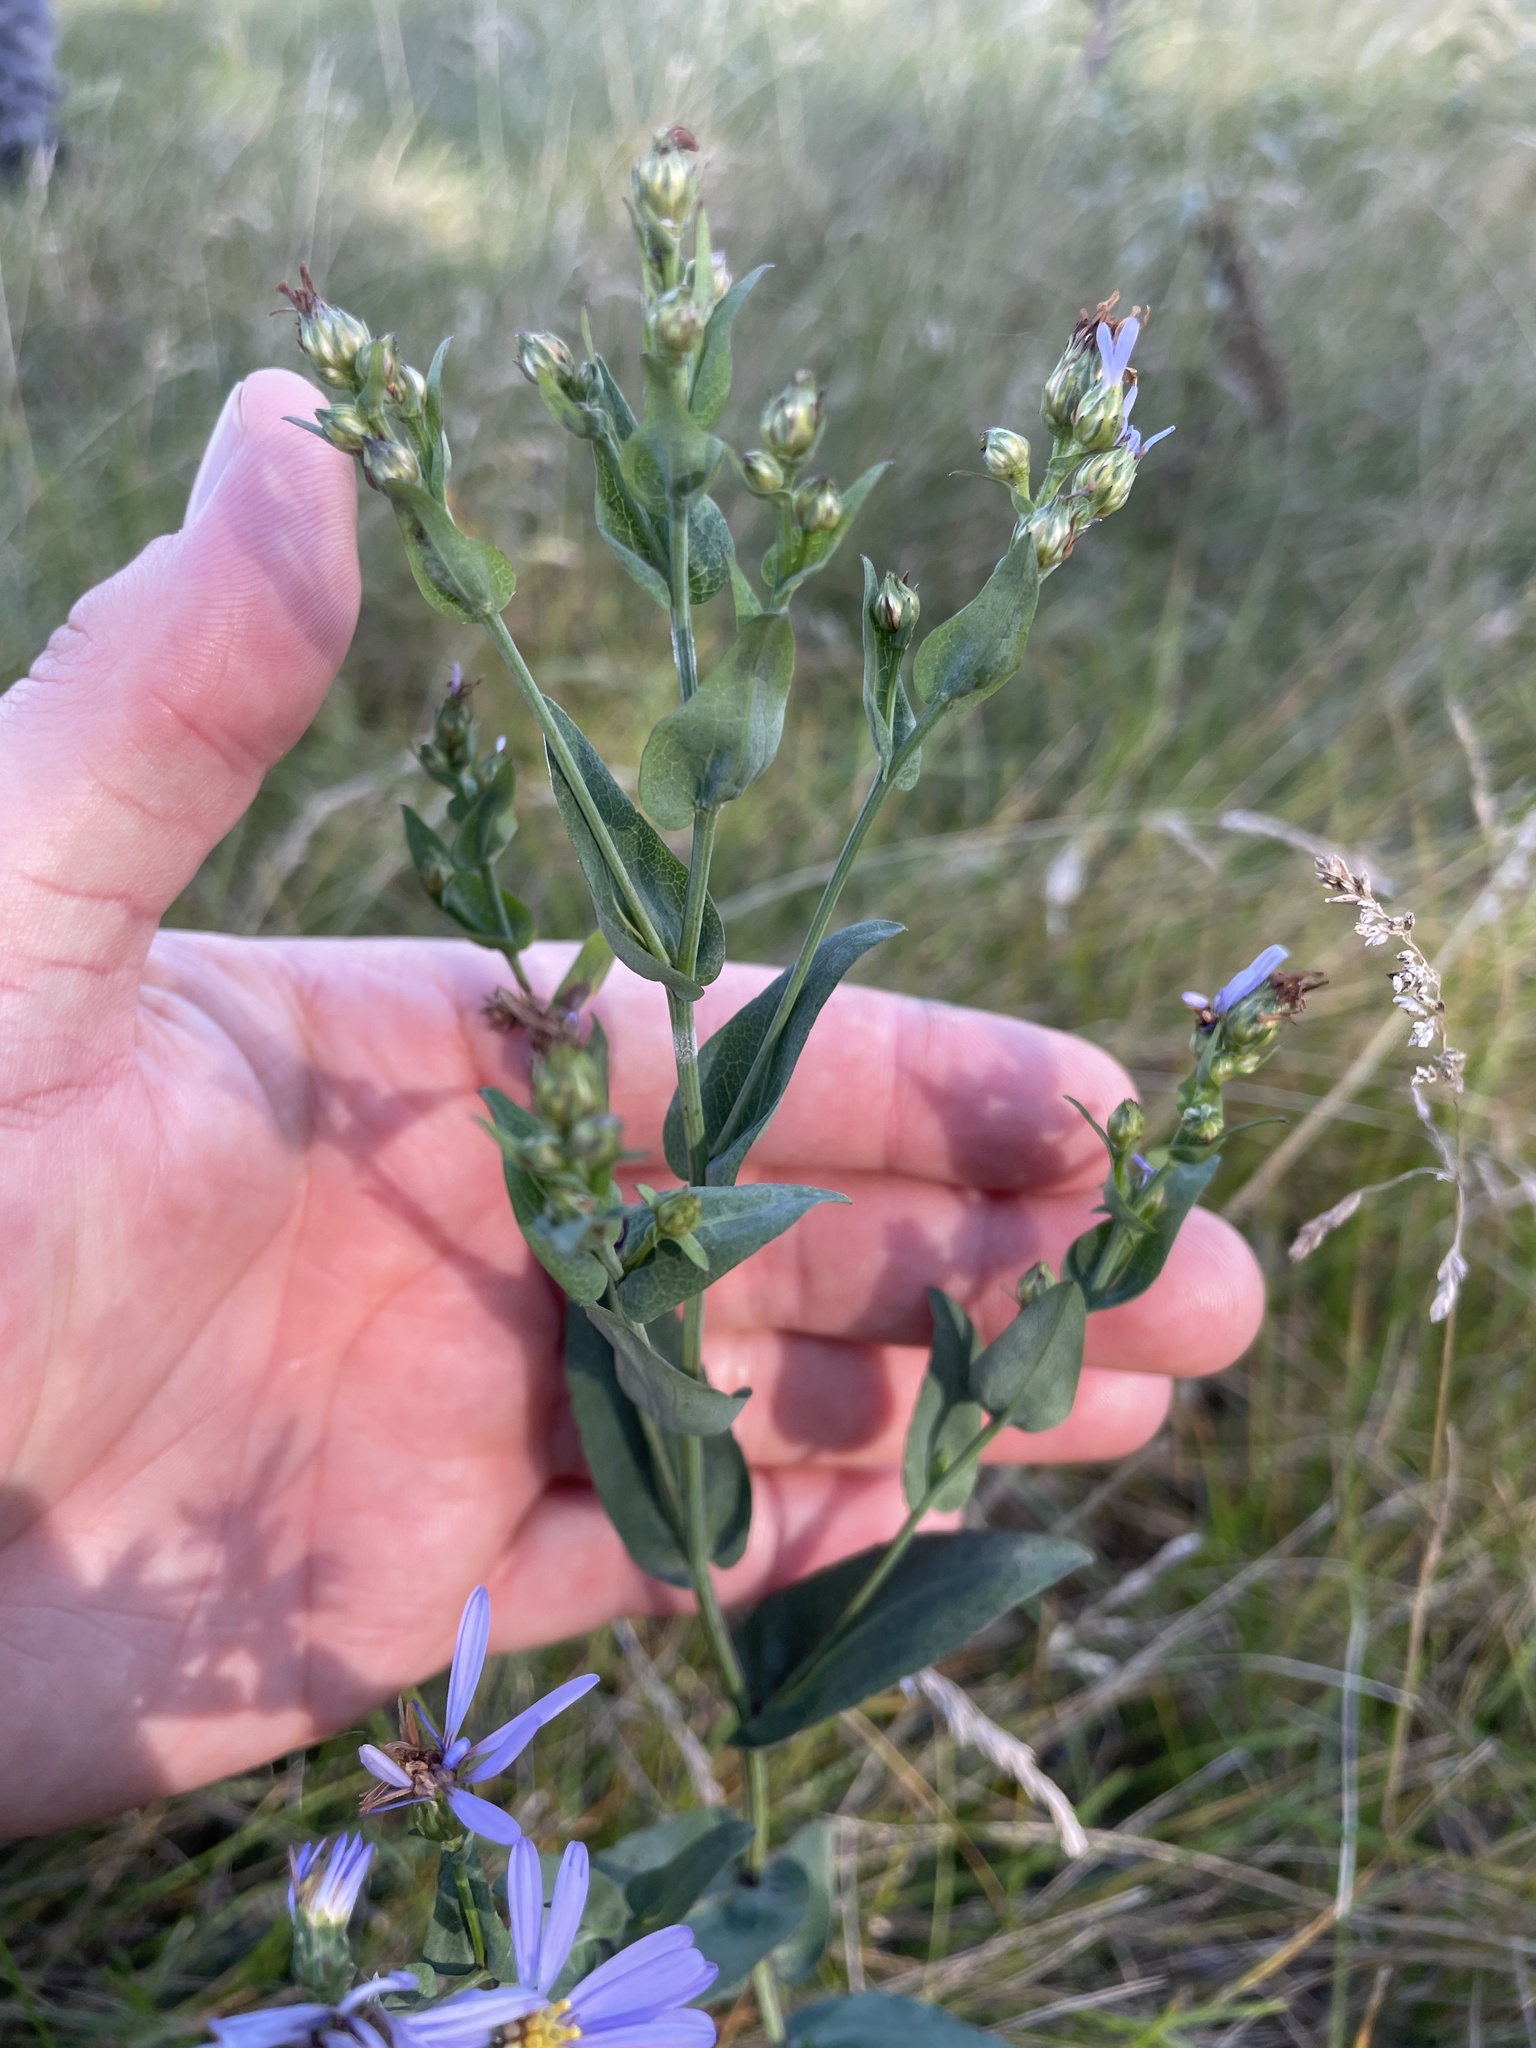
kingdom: Plantae
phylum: Tracheophyta
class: Magnoliopsida
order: Asterales
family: Asteraceae
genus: Symphyotrichum
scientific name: Symphyotrichum laeve
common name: Glaucous aster
